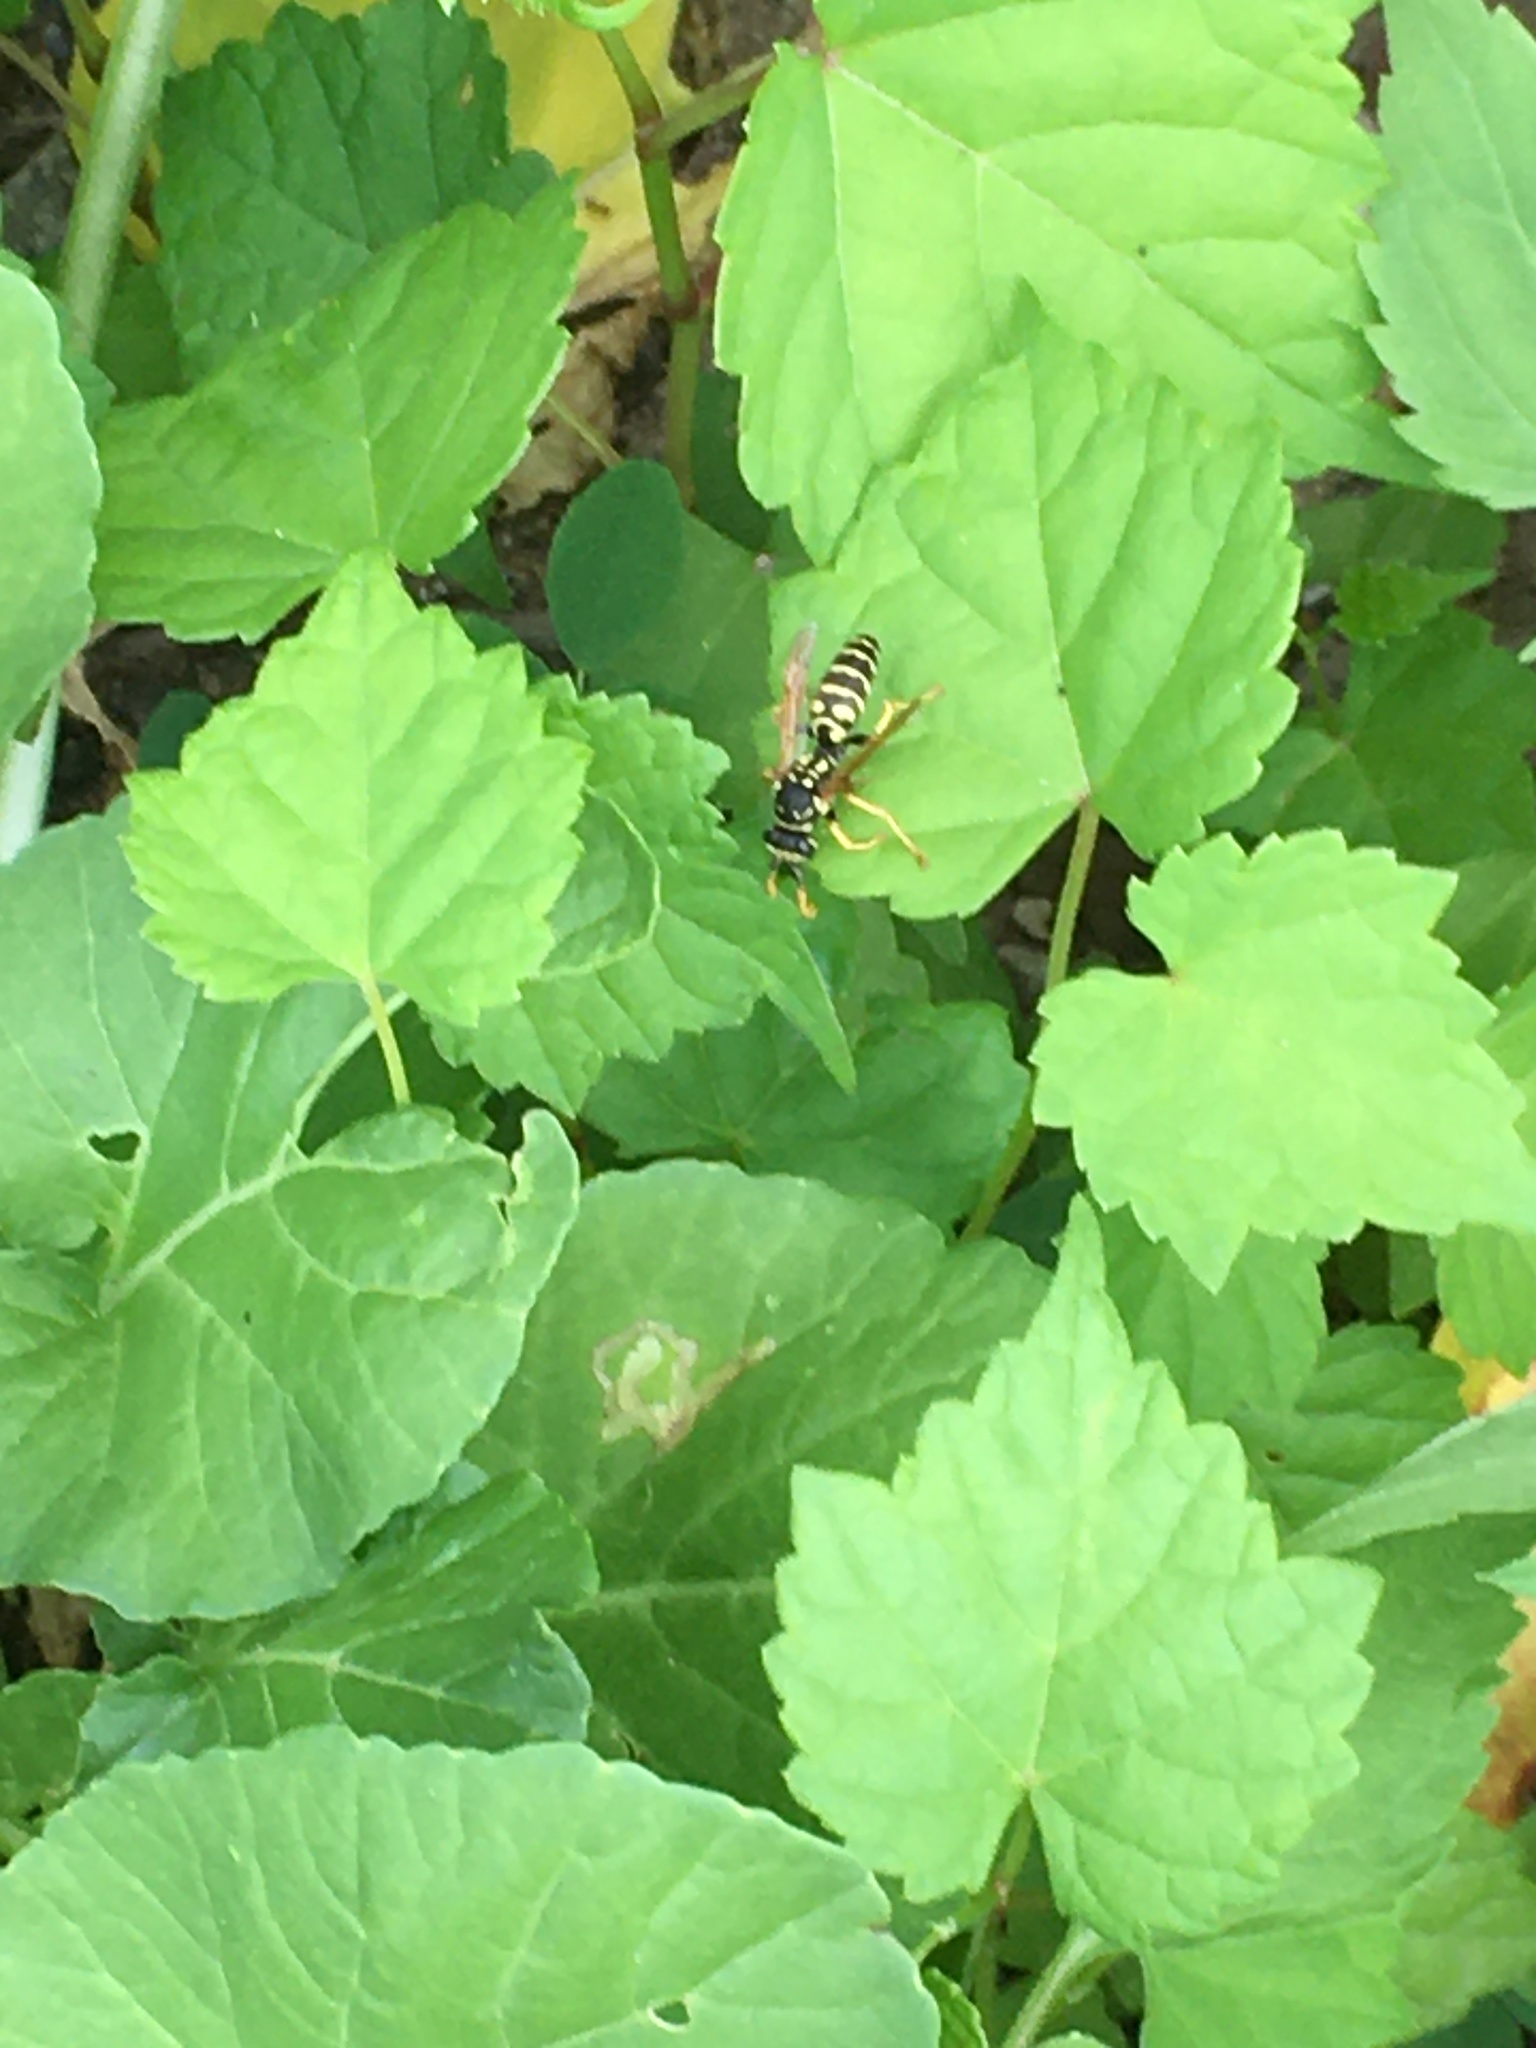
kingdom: Animalia
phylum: Arthropoda
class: Insecta
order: Hymenoptera
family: Eumenidae
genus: Polistes
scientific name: Polistes dominula
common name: Paper wasp
